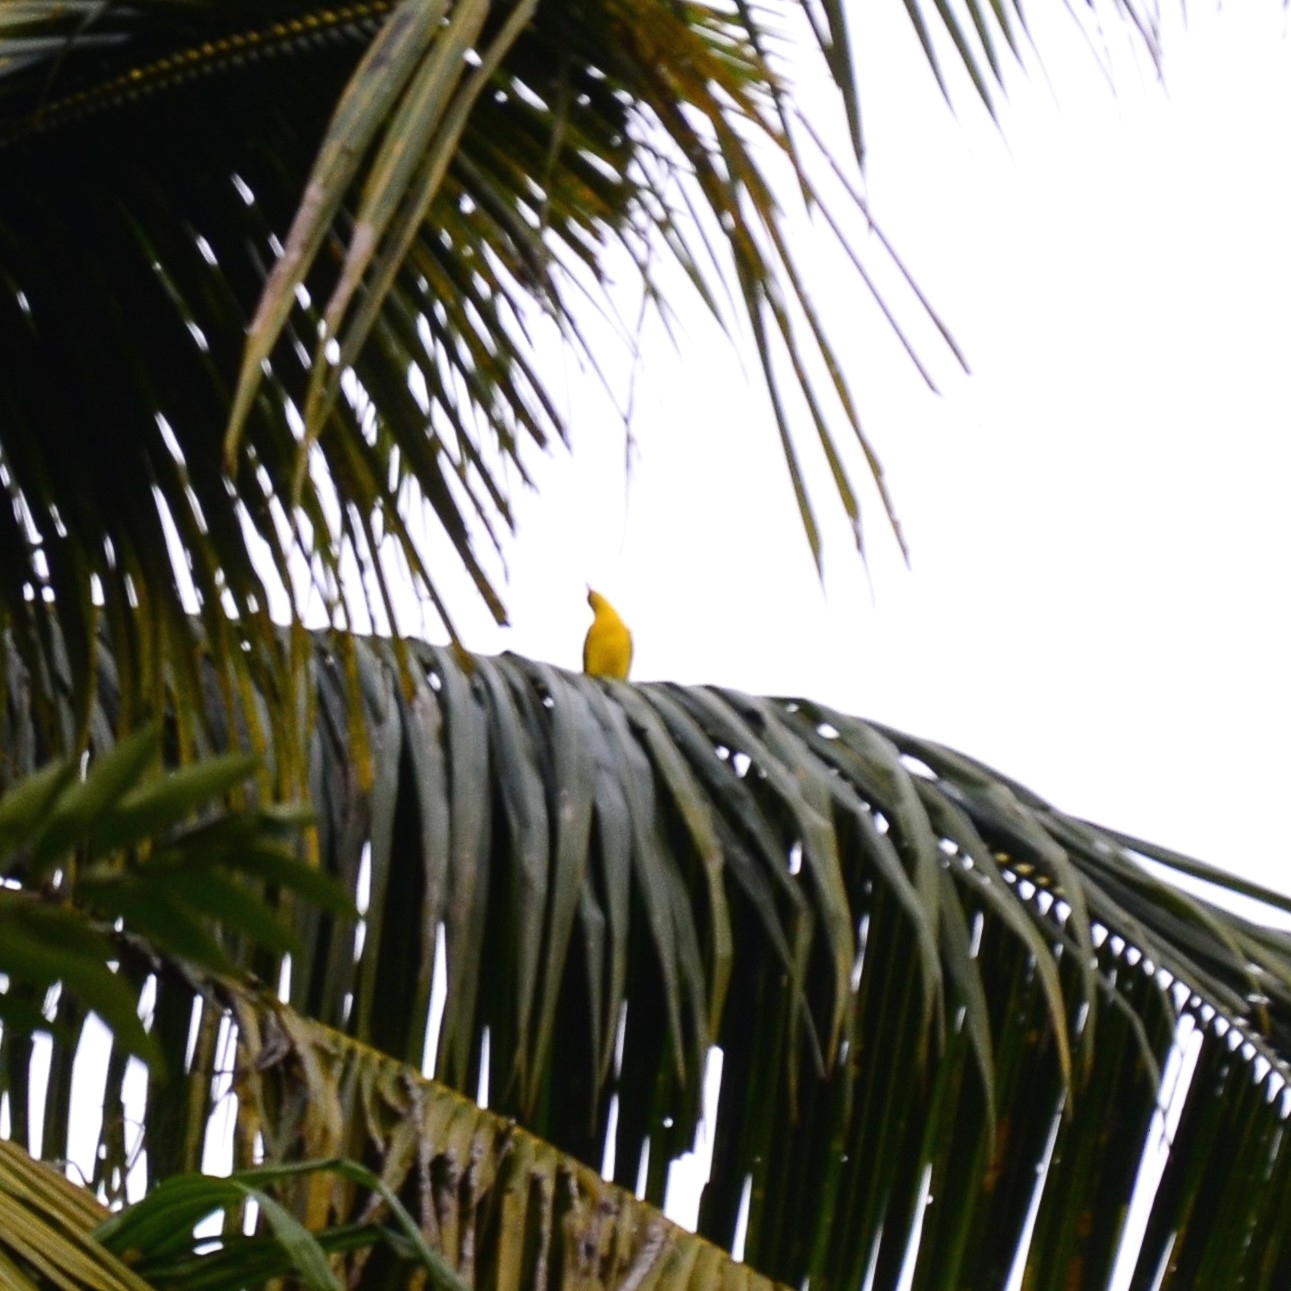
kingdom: Animalia
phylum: Chordata
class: Aves
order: Passeriformes
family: Oriolidae
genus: Oriolus
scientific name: Oriolus kundoo
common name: Indian golden oriole
